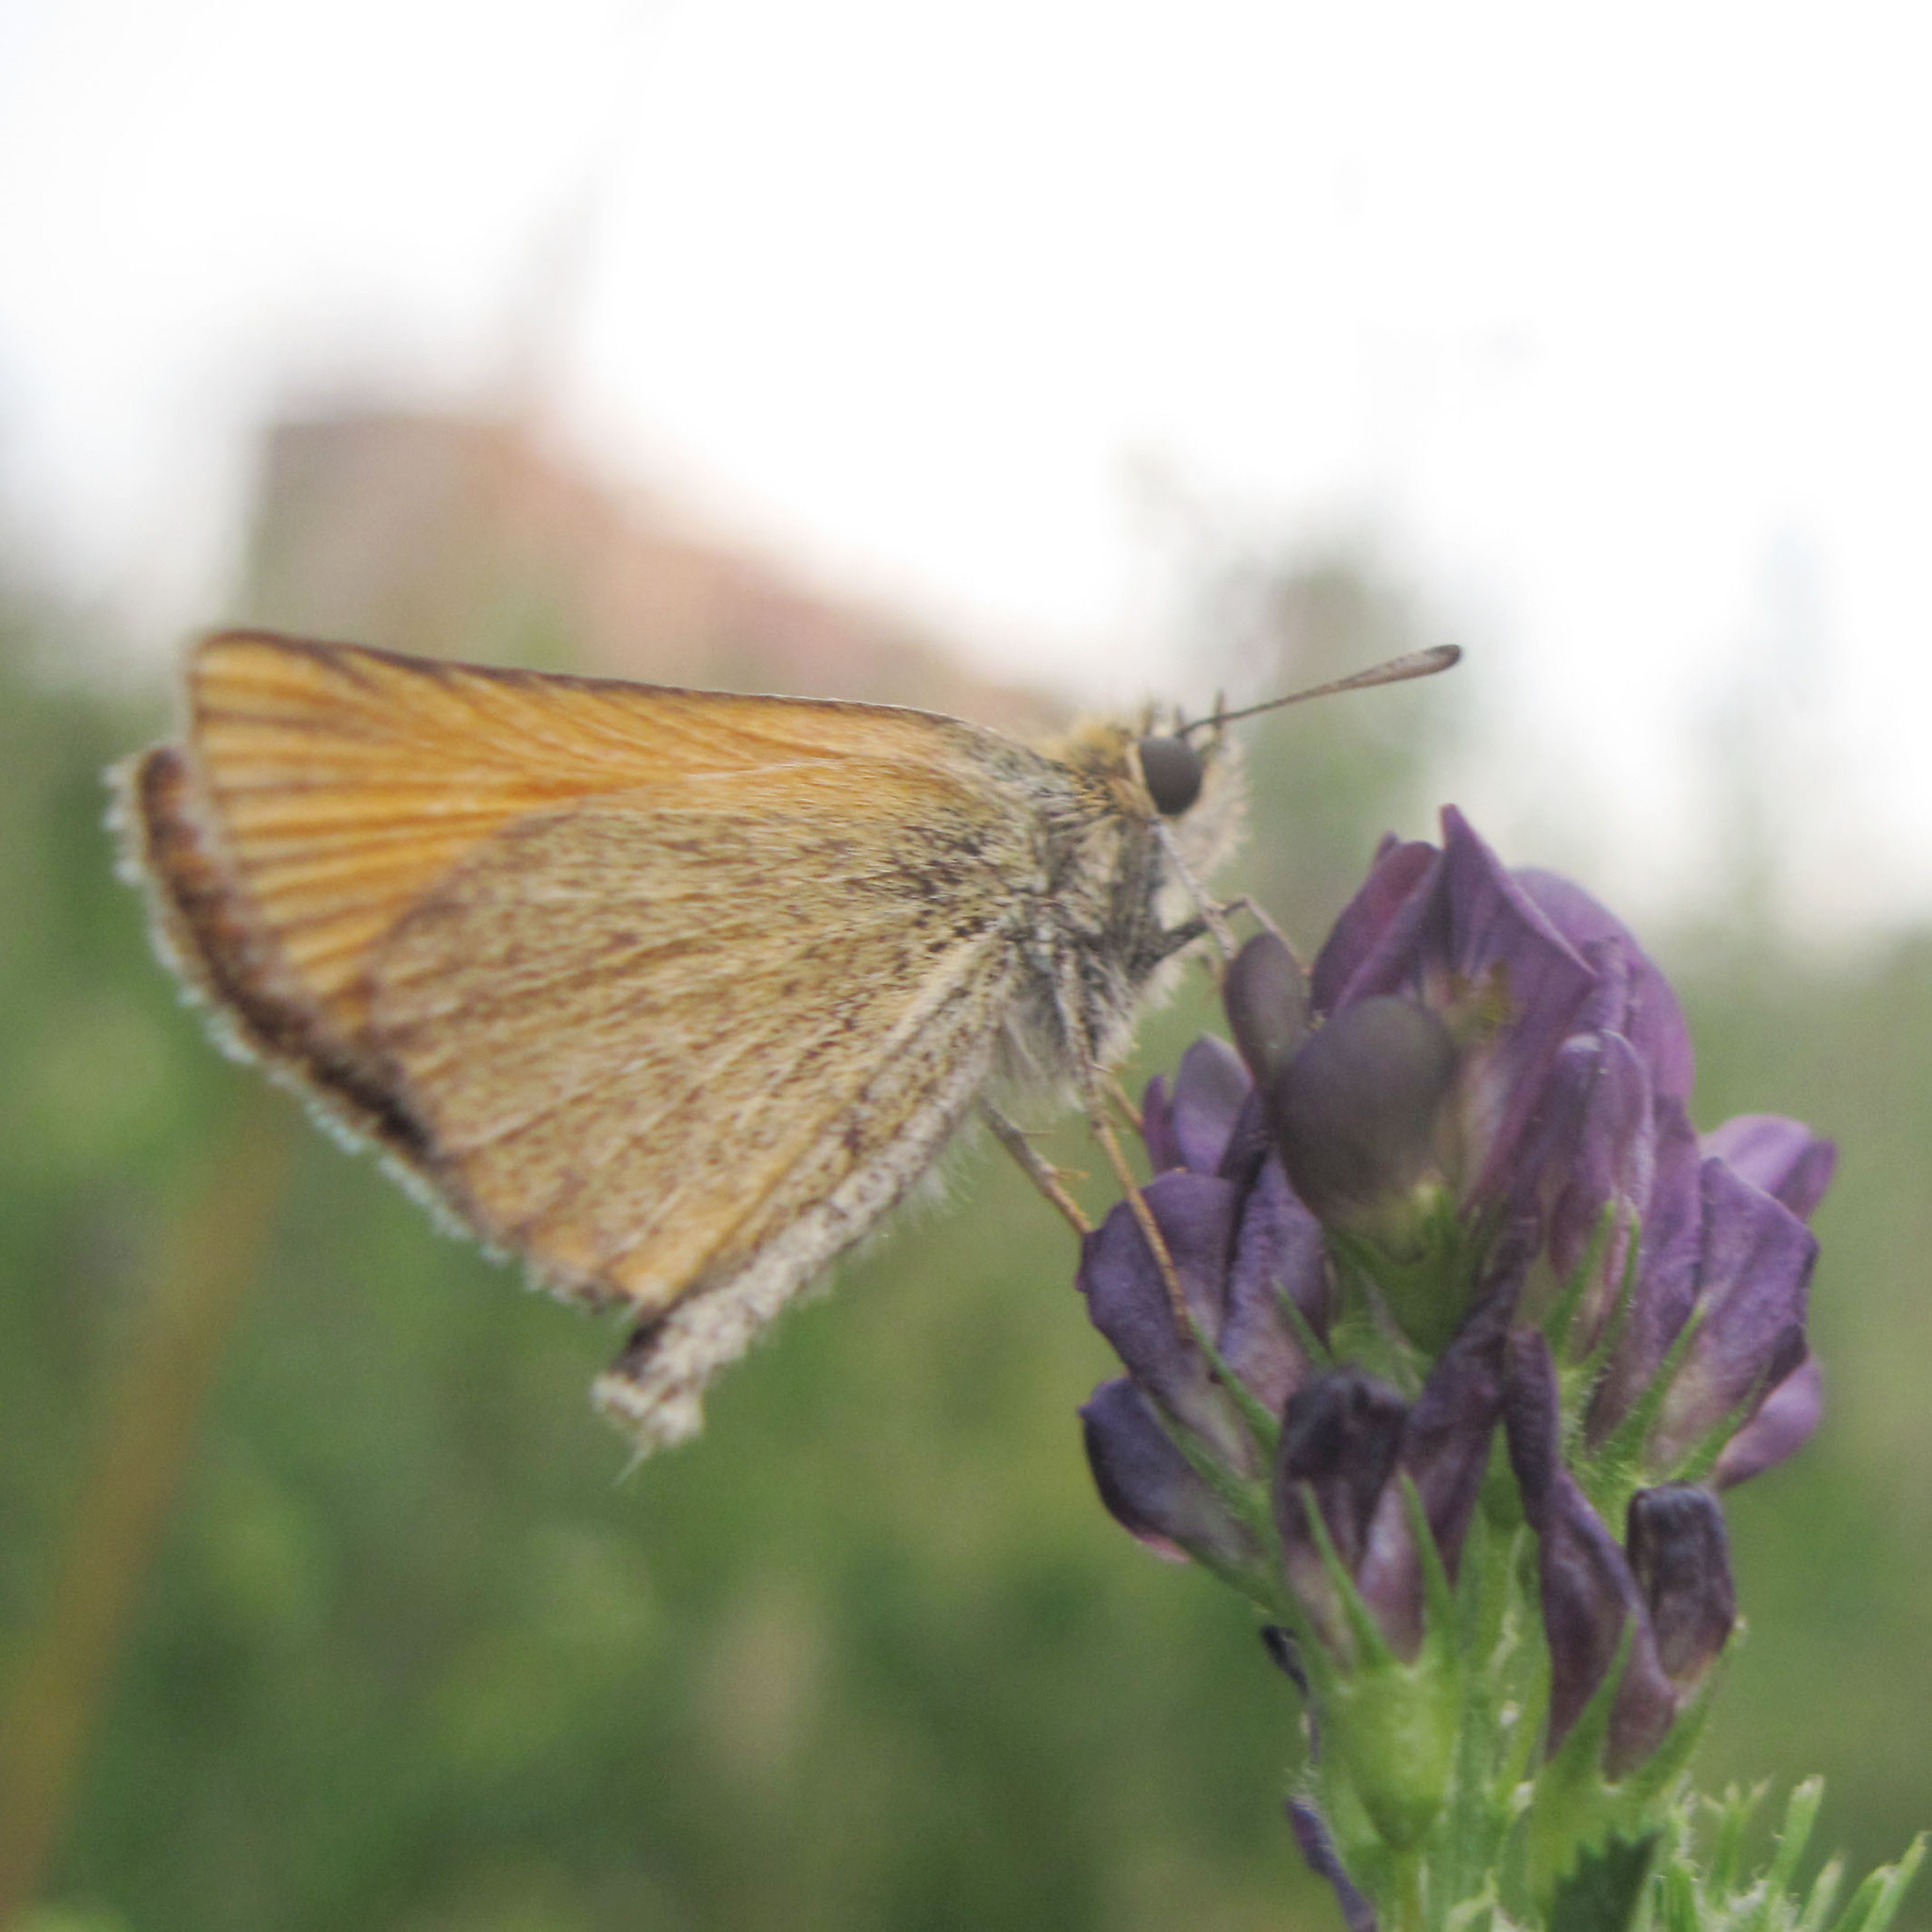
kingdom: Animalia
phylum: Arthropoda
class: Insecta
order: Lepidoptera
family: Hesperiidae
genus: Thymelicus
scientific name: Thymelicus lineola
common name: Essex skipper
